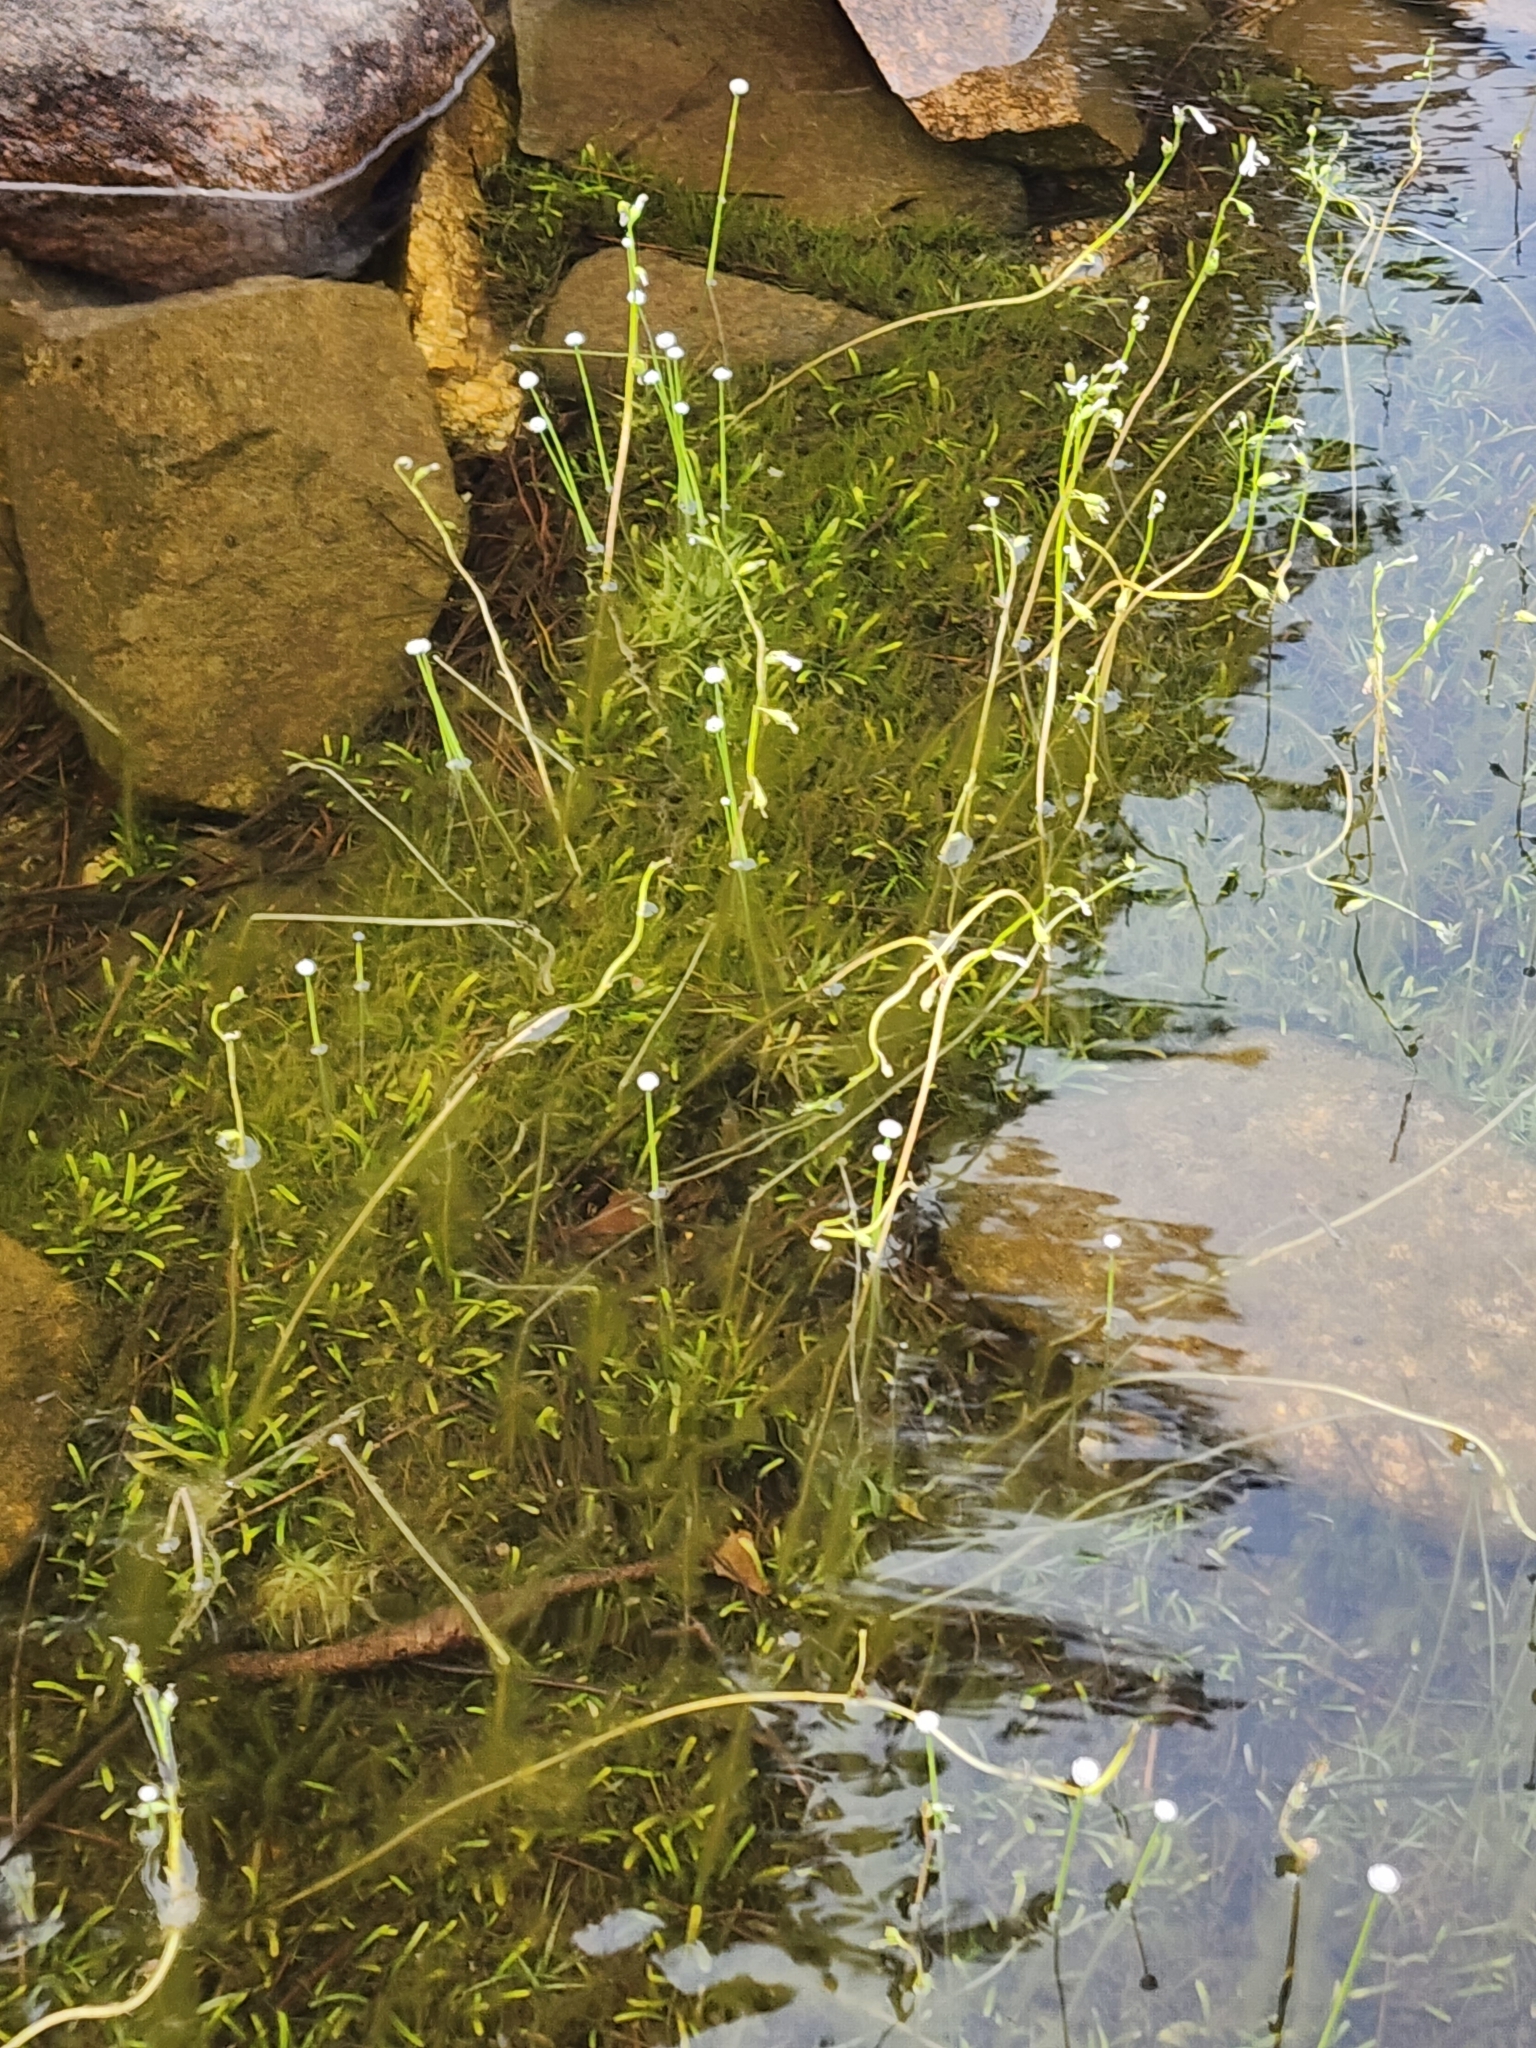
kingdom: Plantae
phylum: Tracheophyta
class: Liliopsida
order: Poales
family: Eriocaulaceae
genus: Eriocaulon
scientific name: Eriocaulon aquaticum
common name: Pipewort
